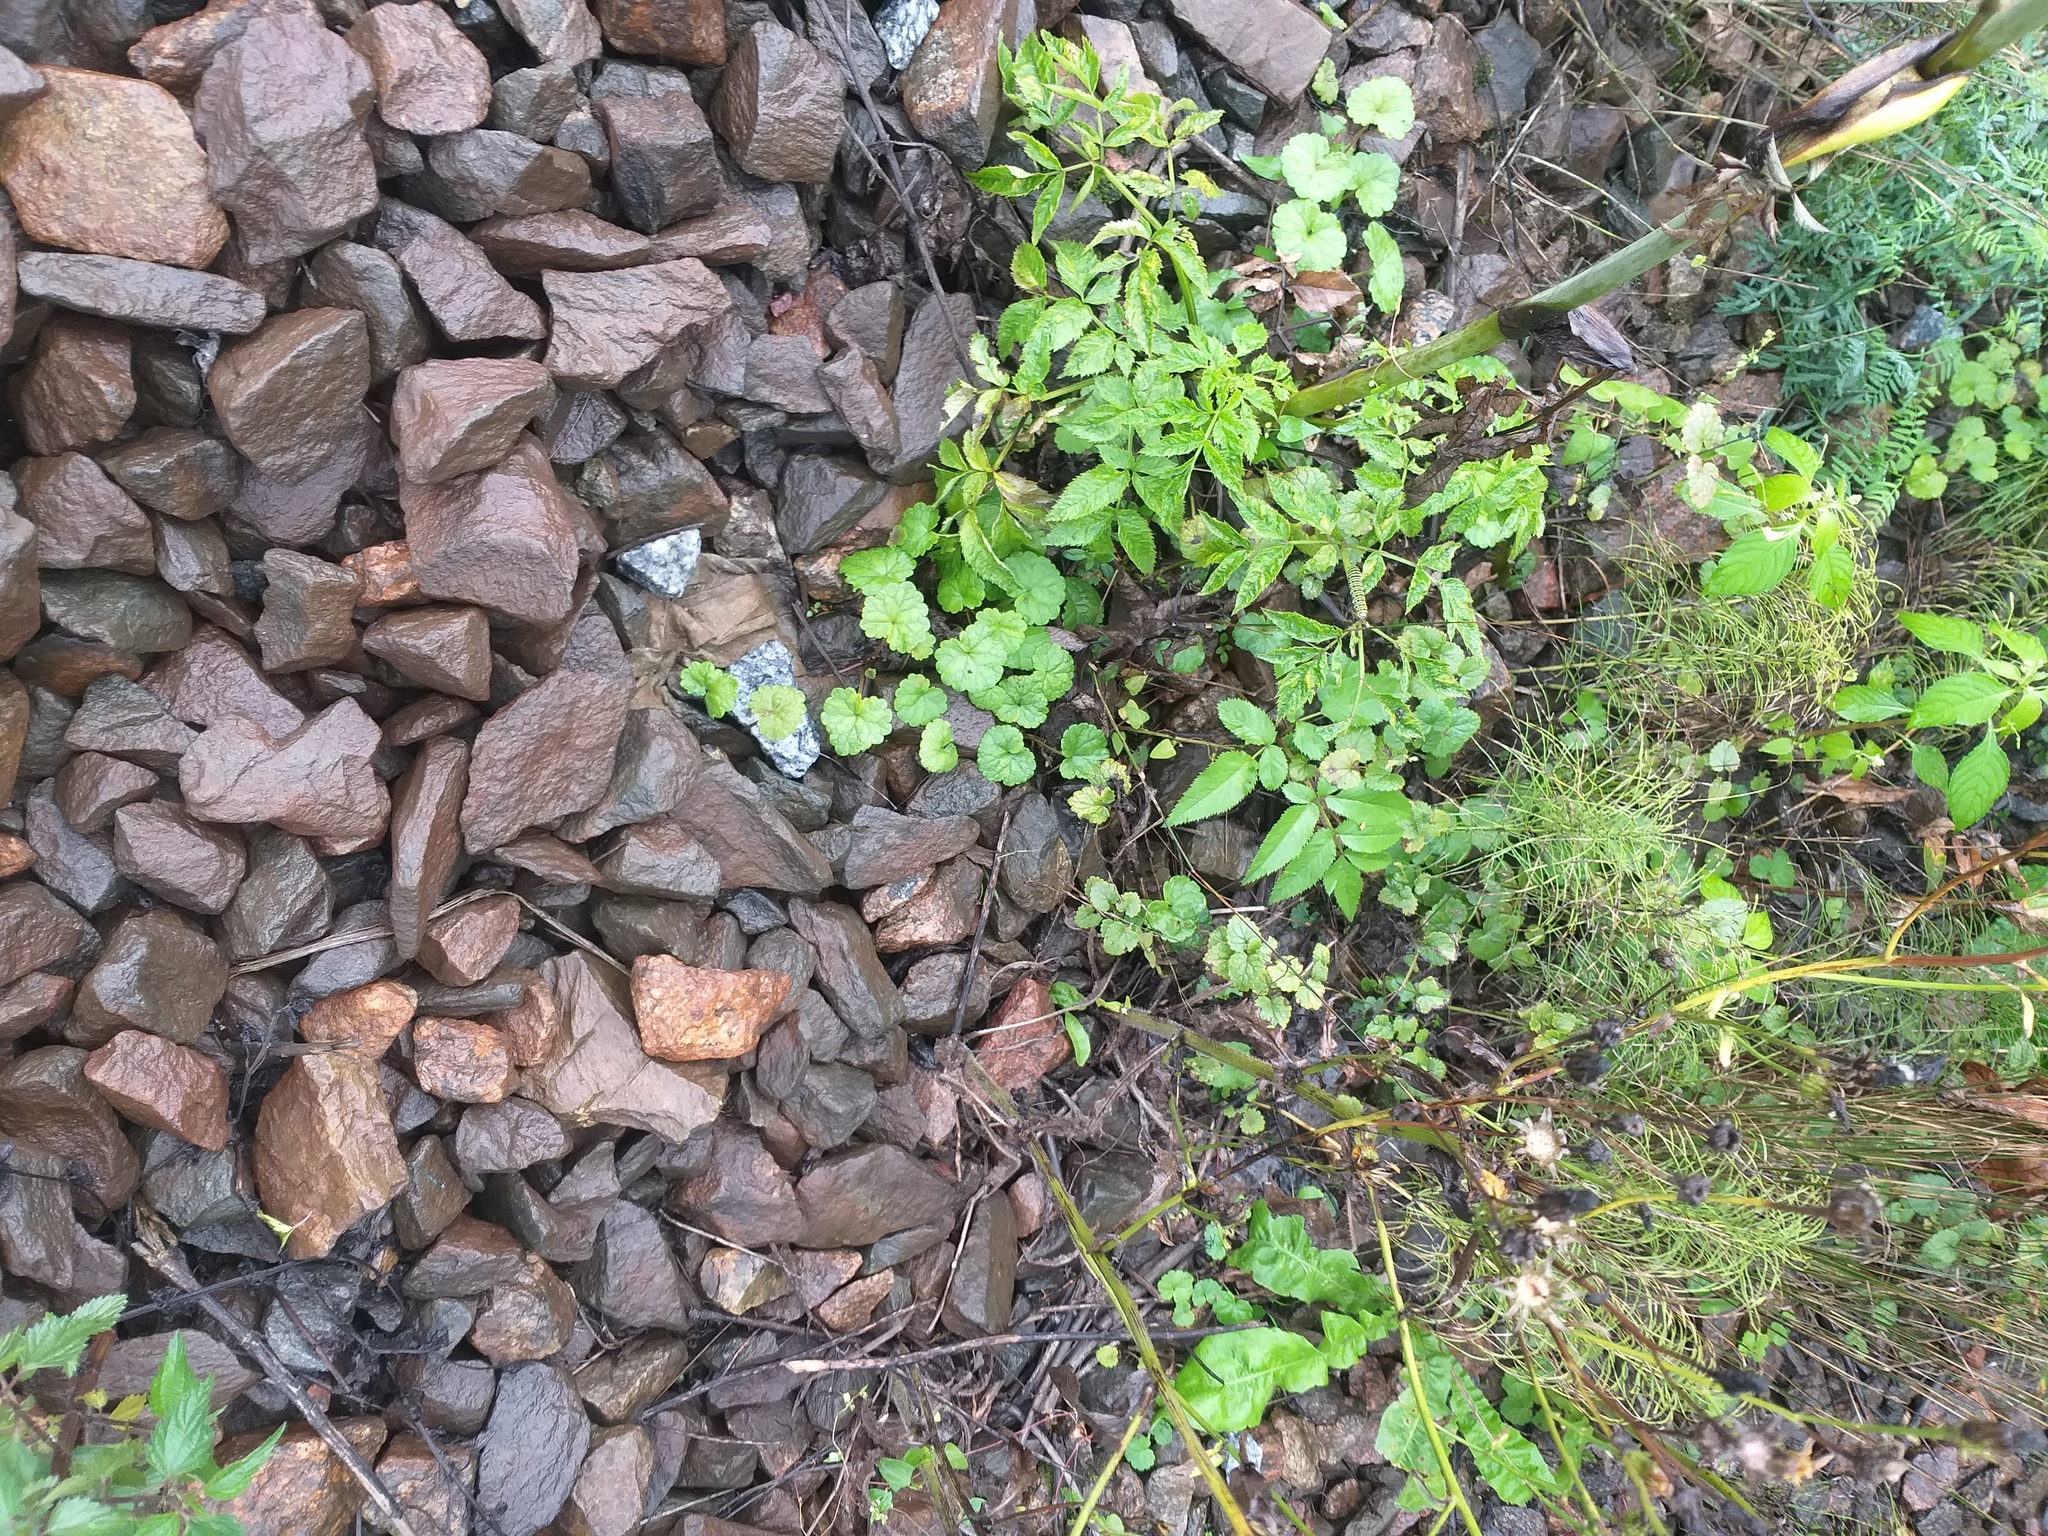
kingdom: Plantae
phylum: Tracheophyta
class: Magnoliopsida
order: Lamiales
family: Lamiaceae
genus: Glechoma
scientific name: Glechoma hederacea
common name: Ground ivy
